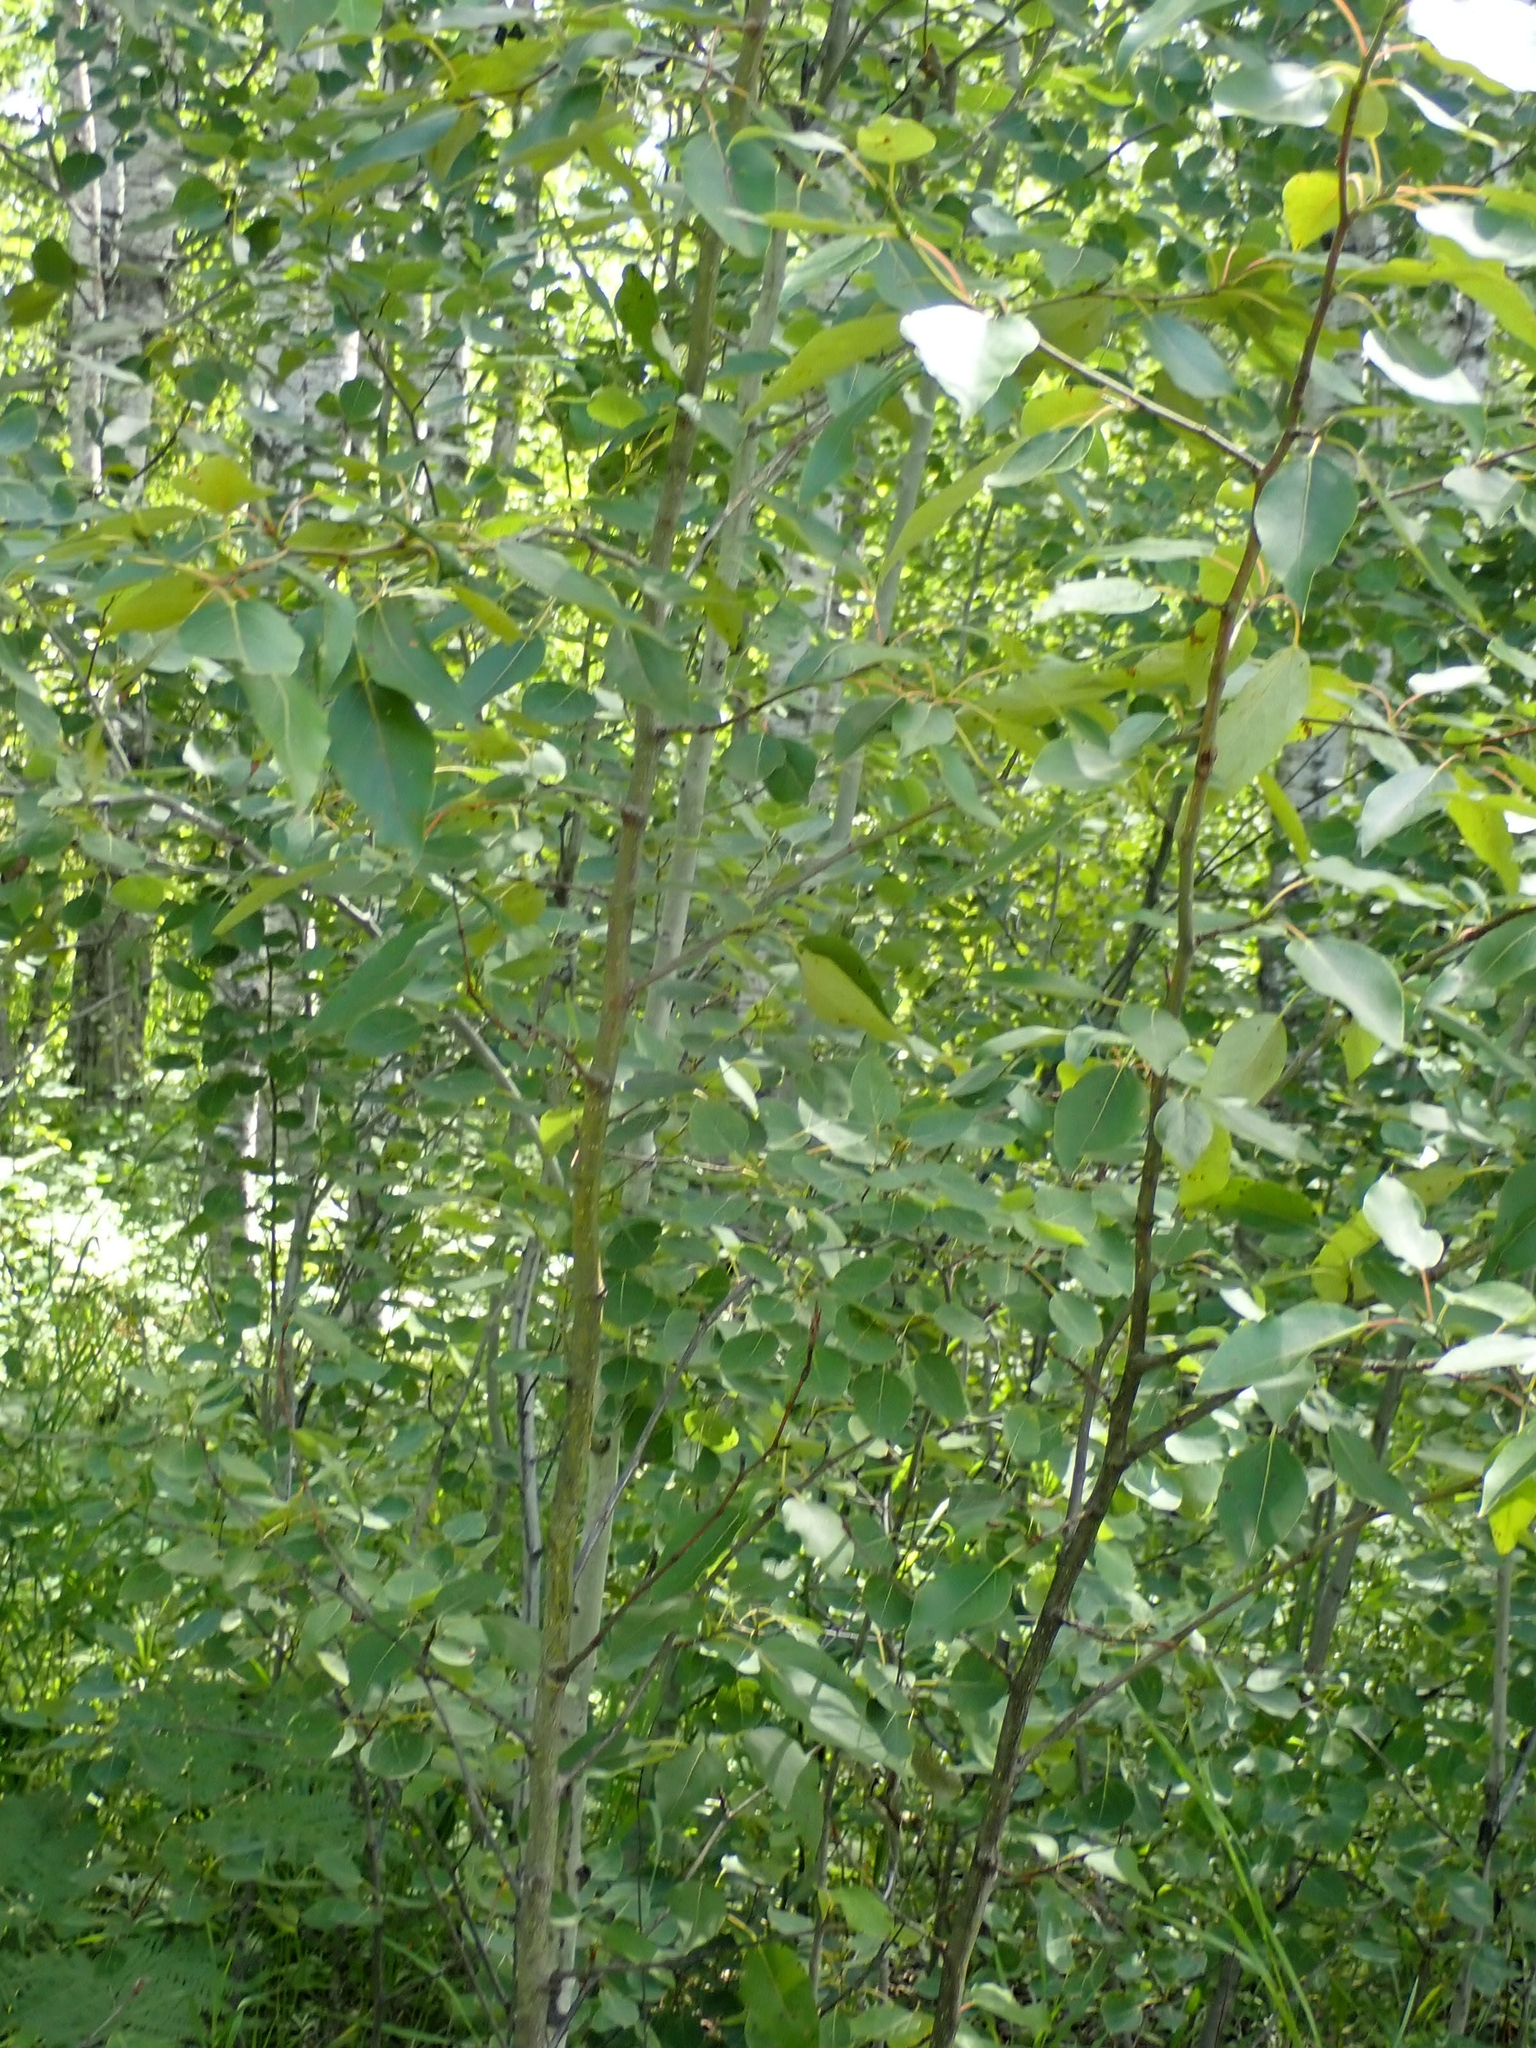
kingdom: Plantae
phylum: Tracheophyta
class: Magnoliopsida
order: Malpighiales
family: Salicaceae
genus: Populus
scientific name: Populus balsamifera
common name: Balsam poplar
